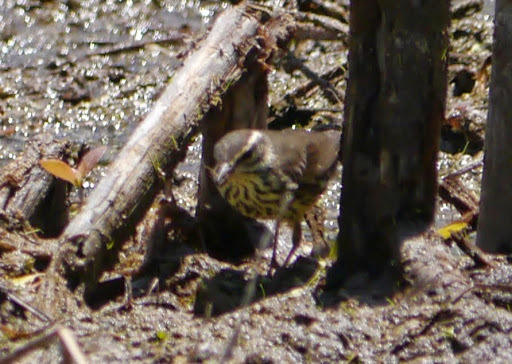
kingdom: Animalia
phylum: Chordata
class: Aves
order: Passeriformes
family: Parulidae
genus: Parkesia
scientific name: Parkesia noveboracensis
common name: Northern waterthrush
